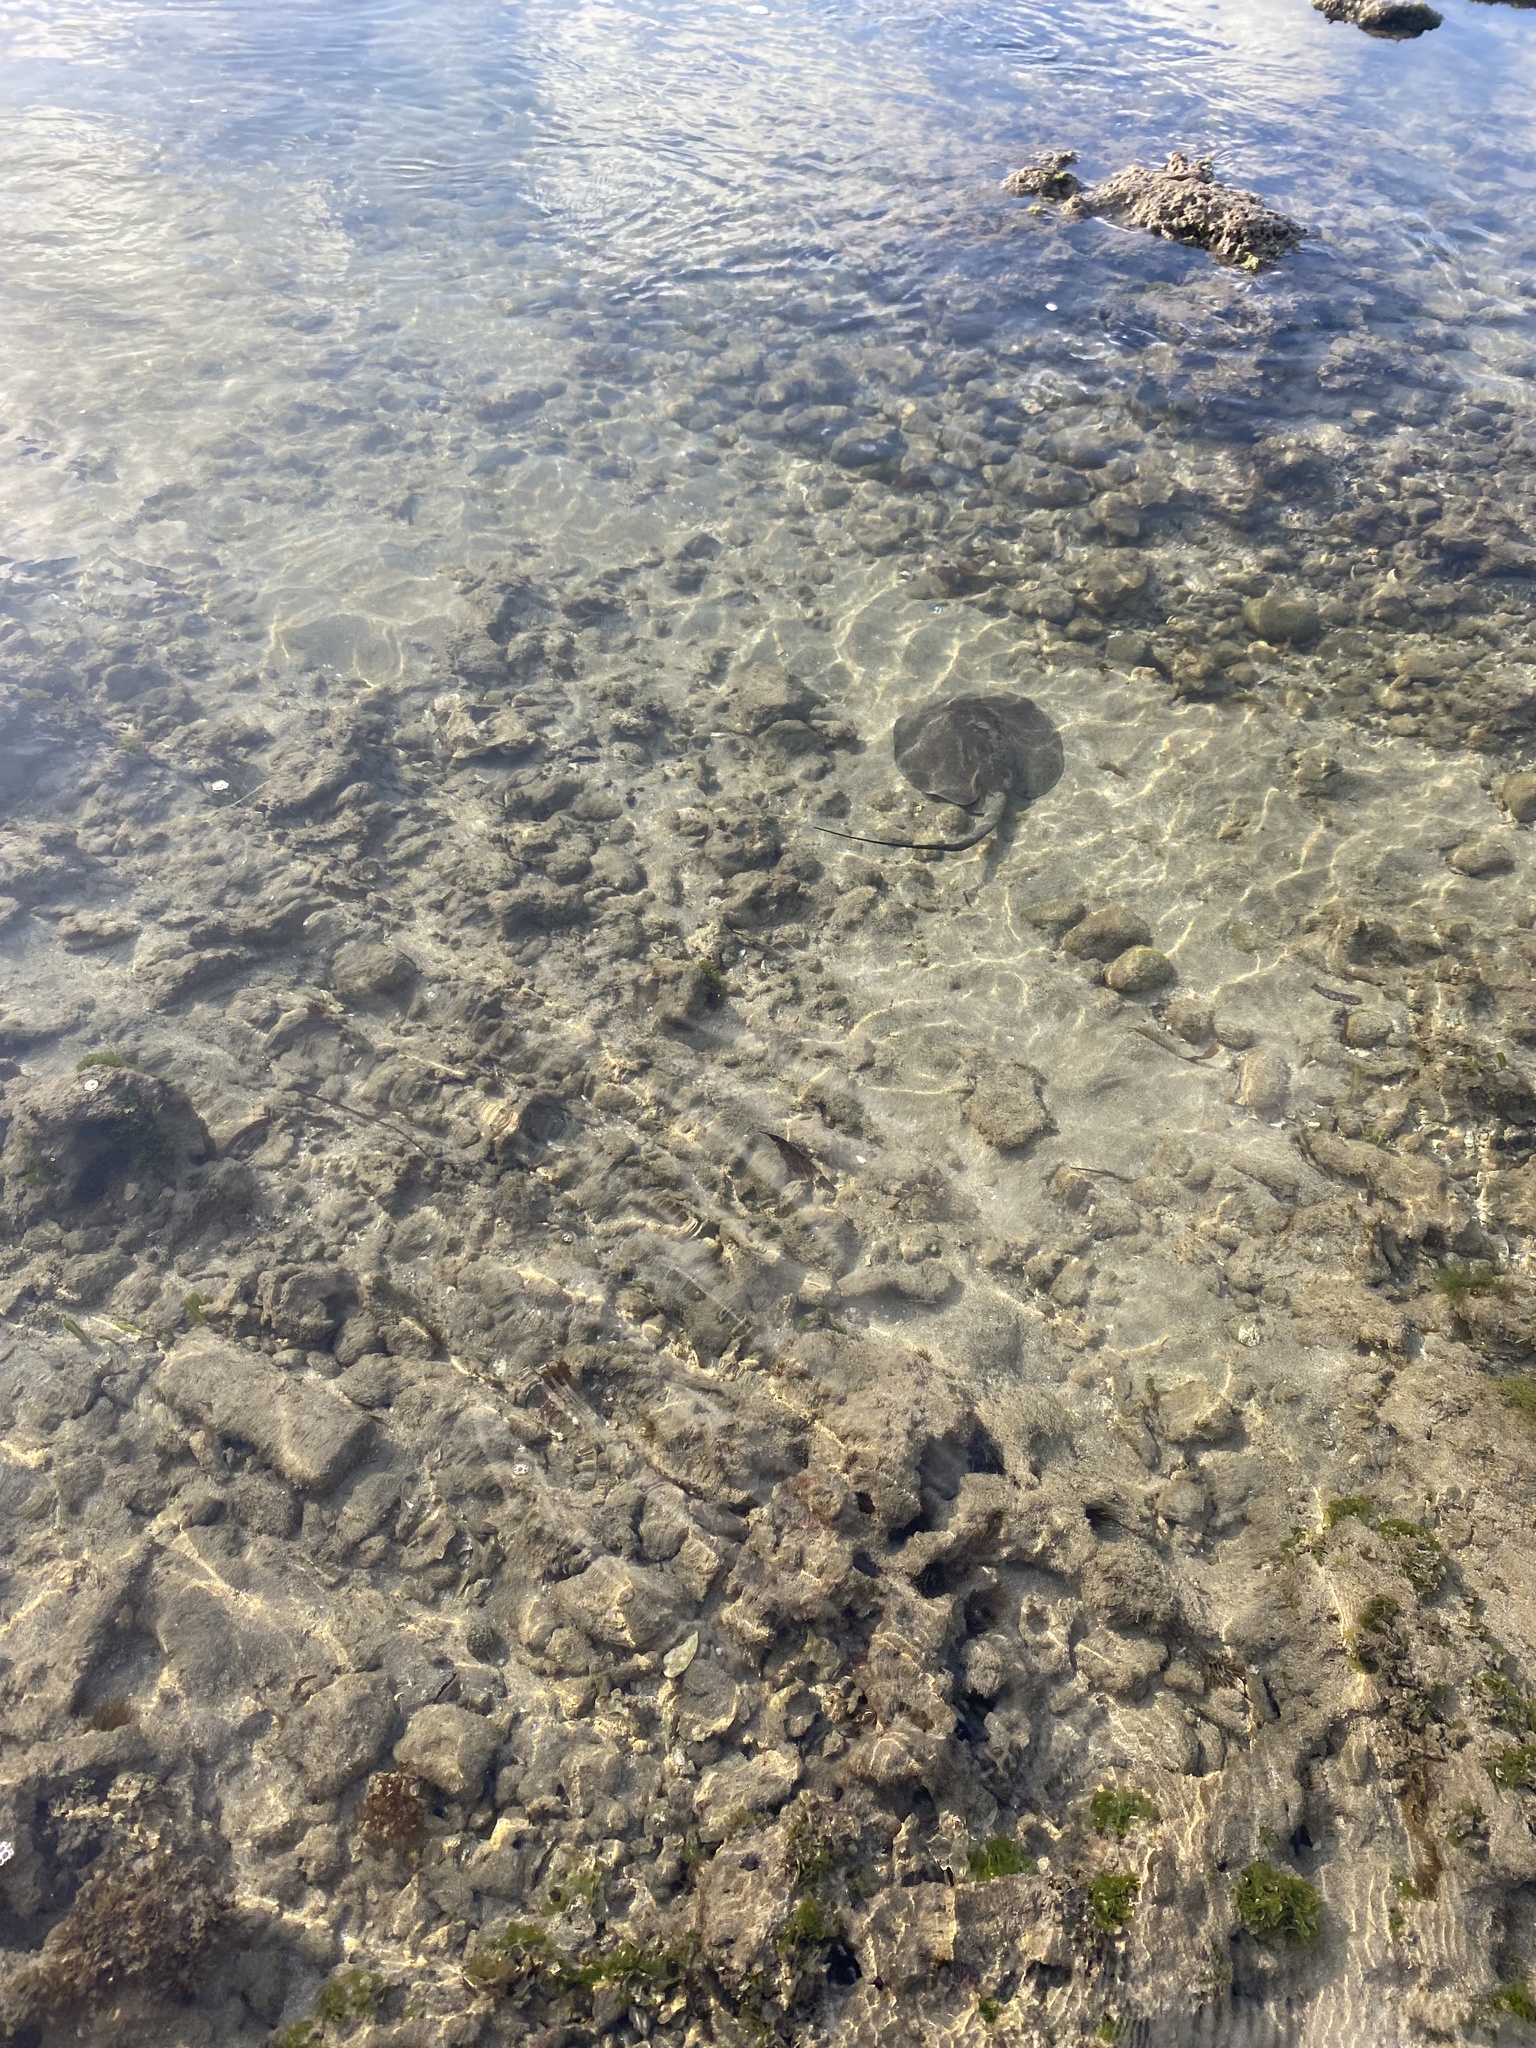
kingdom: Animalia
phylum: Chordata
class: Elasmobranchii
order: Myliobatiformes
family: Potamotrygonidae
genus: Styracura
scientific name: Styracura schmardae
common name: Atlantic chupare
